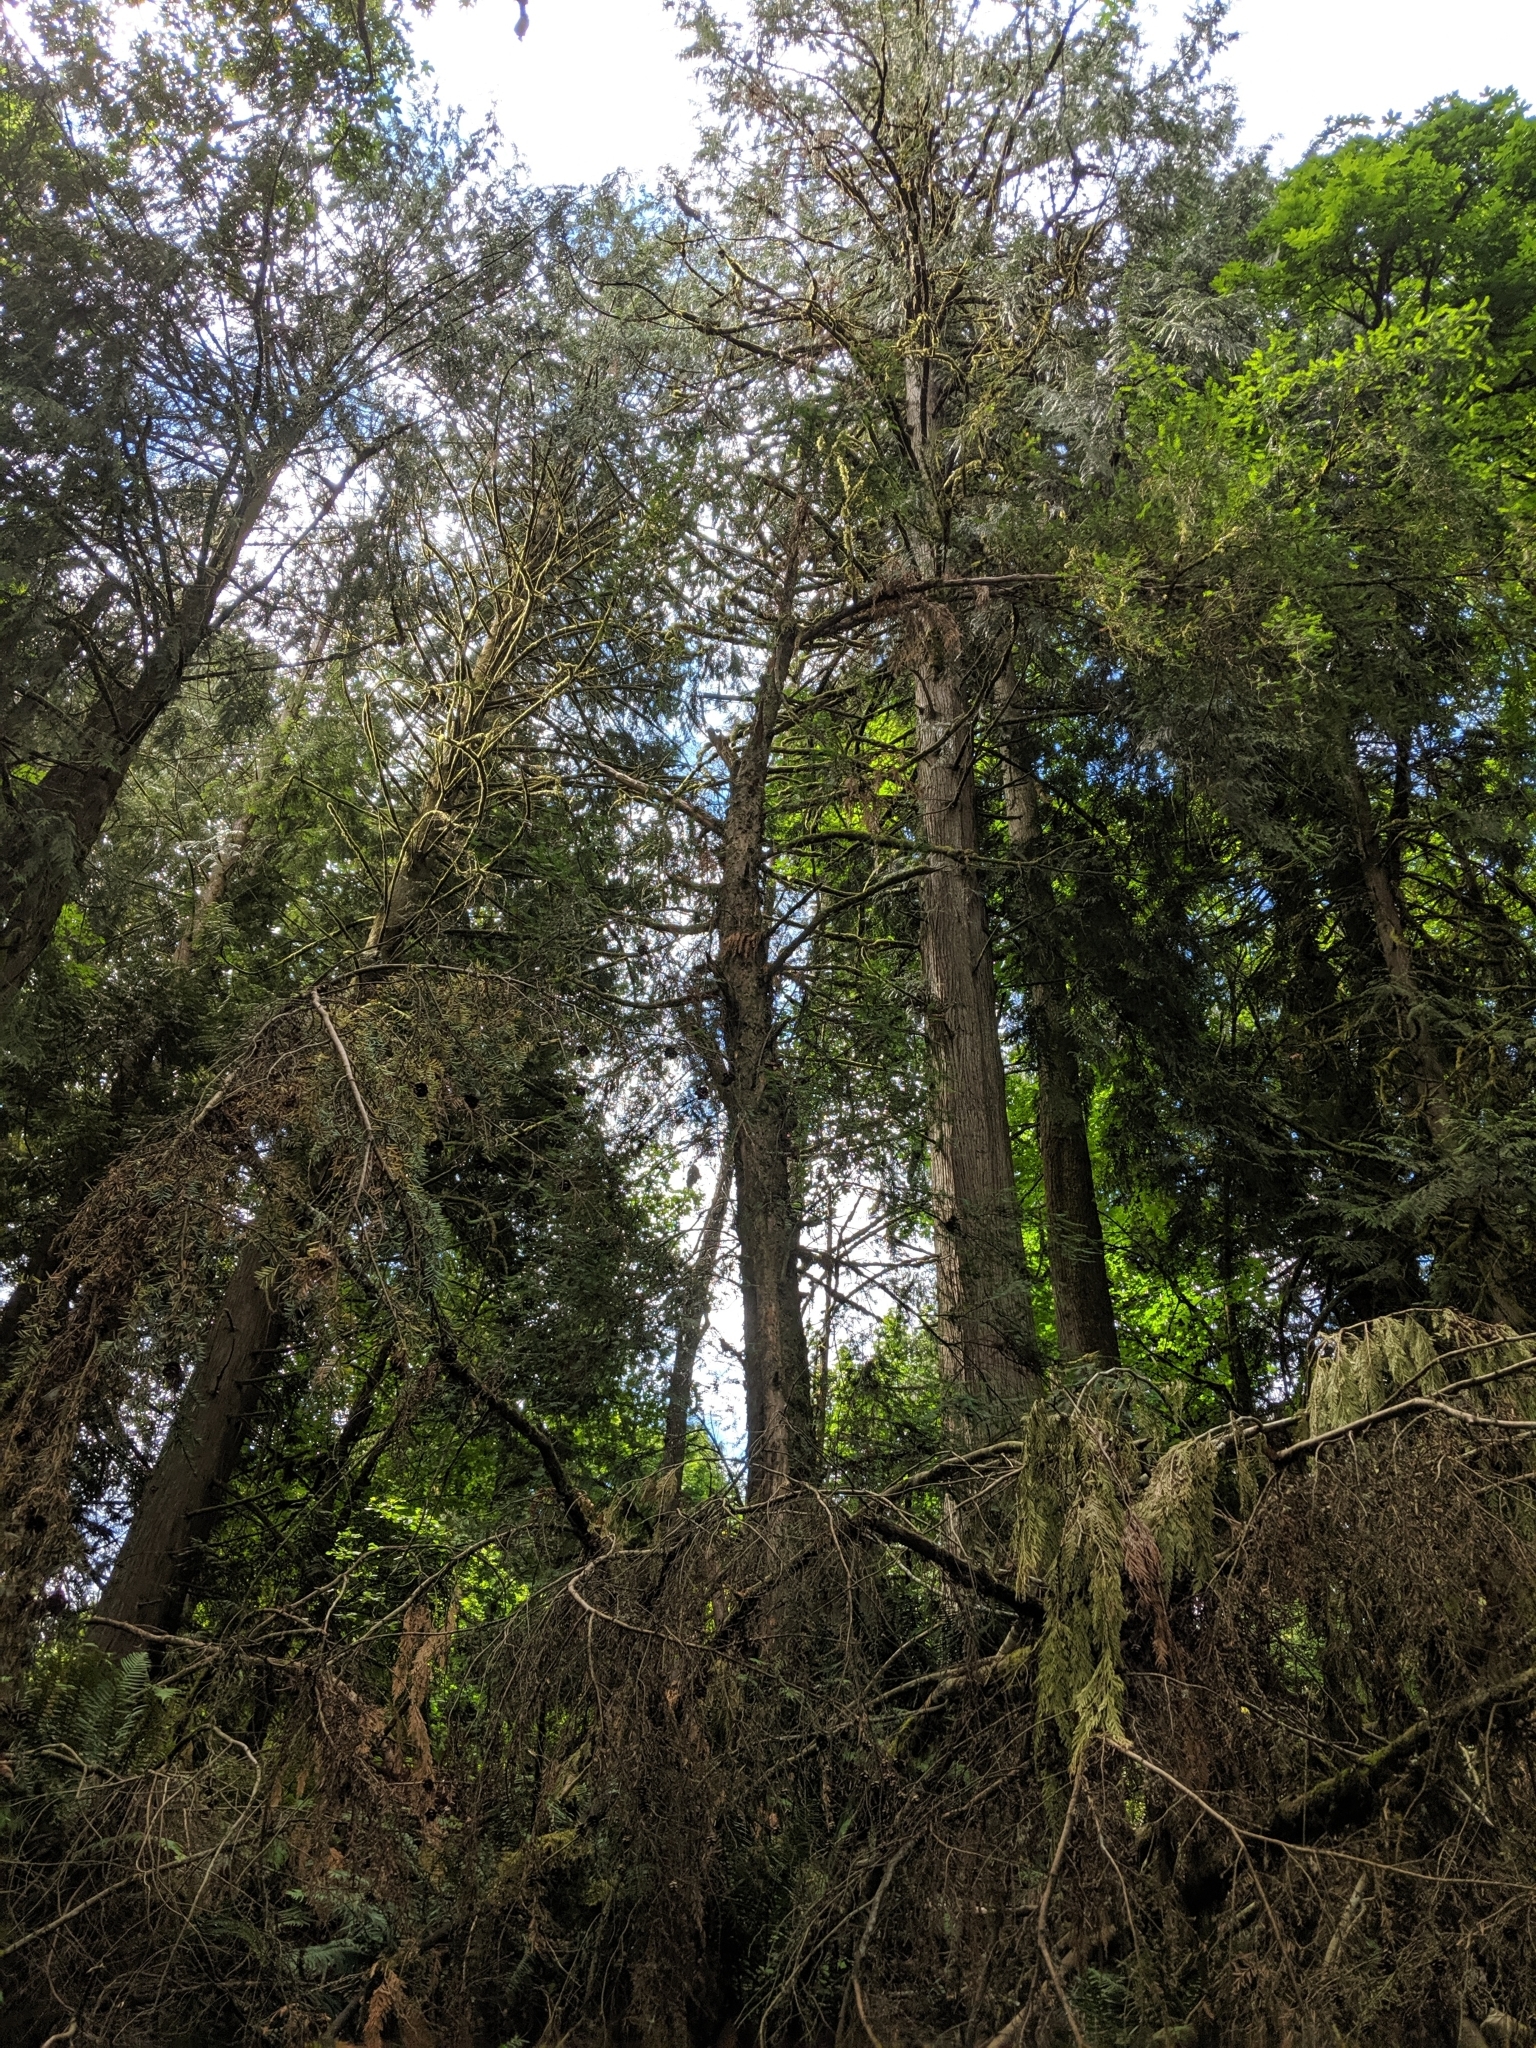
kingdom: Plantae
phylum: Tracheophyta
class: Pinopsida
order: Pinales
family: Taxaceae
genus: Taxus
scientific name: Taxus brevifolia
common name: Pacific yew
